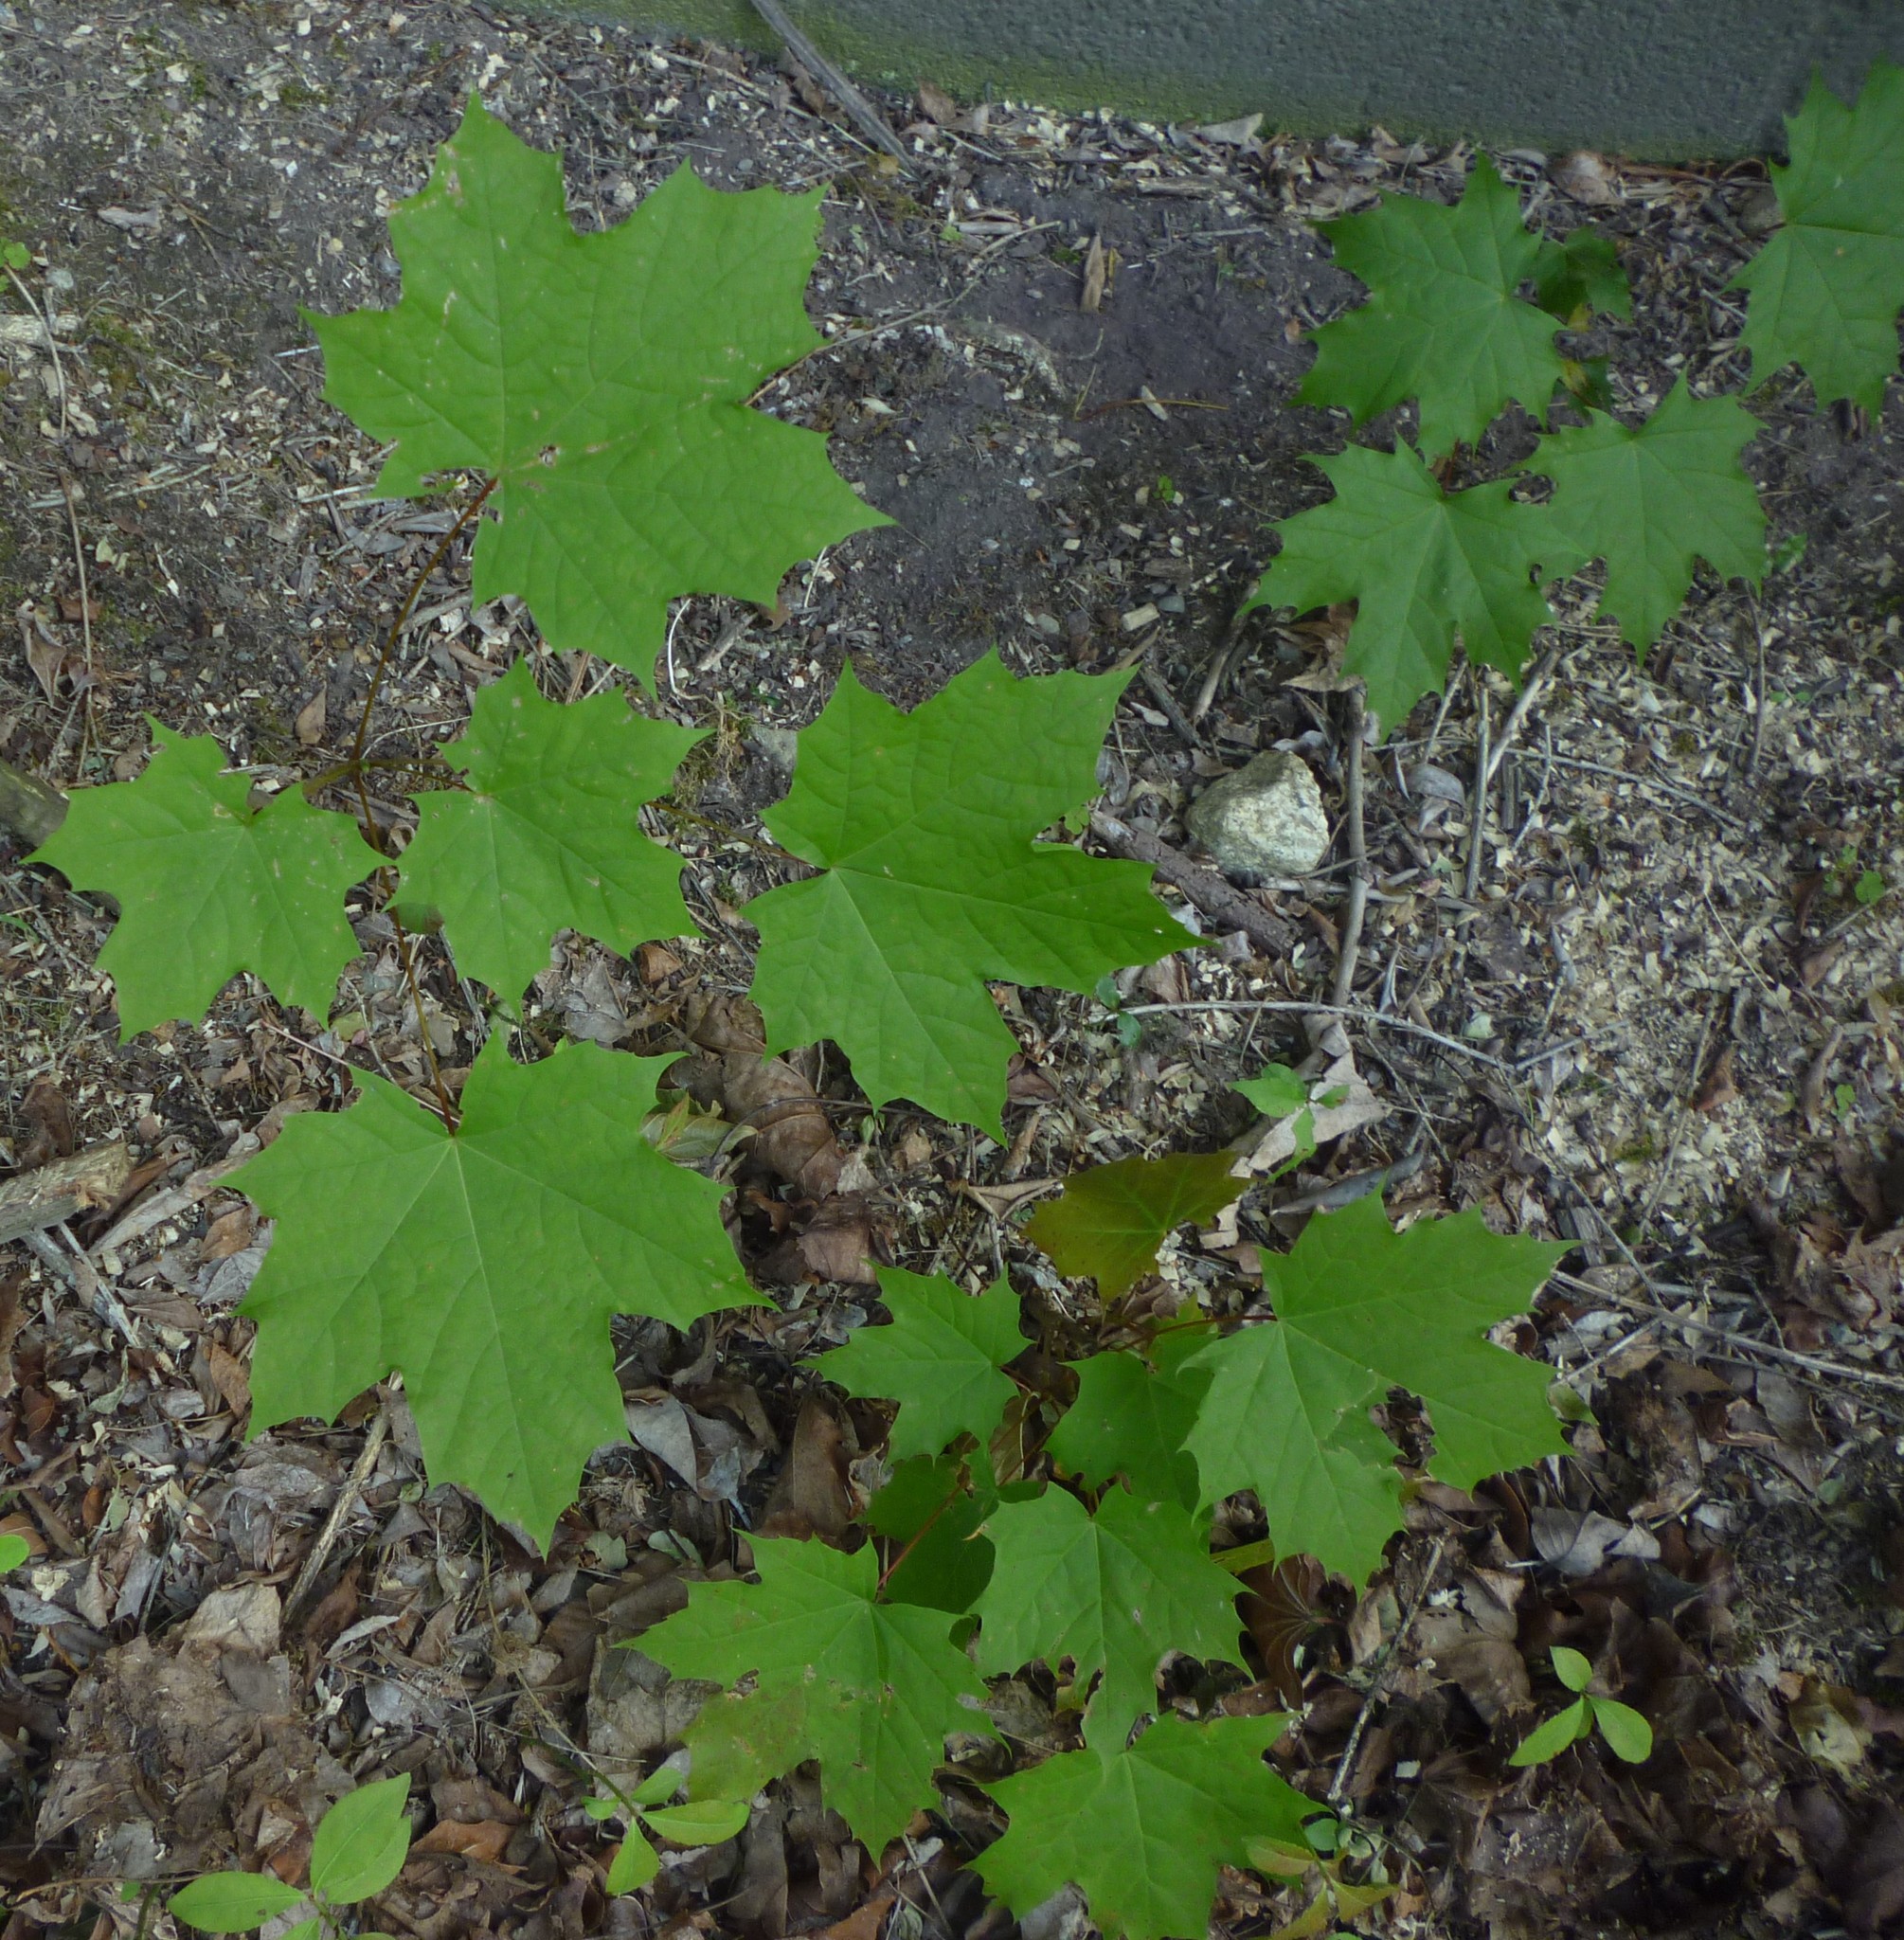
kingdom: Plantae
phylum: Tracheophyta
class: Magnoliopsida
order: Sapindales
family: Sapindaceae
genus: Acer
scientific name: Acer platanoides
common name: Norway maple
